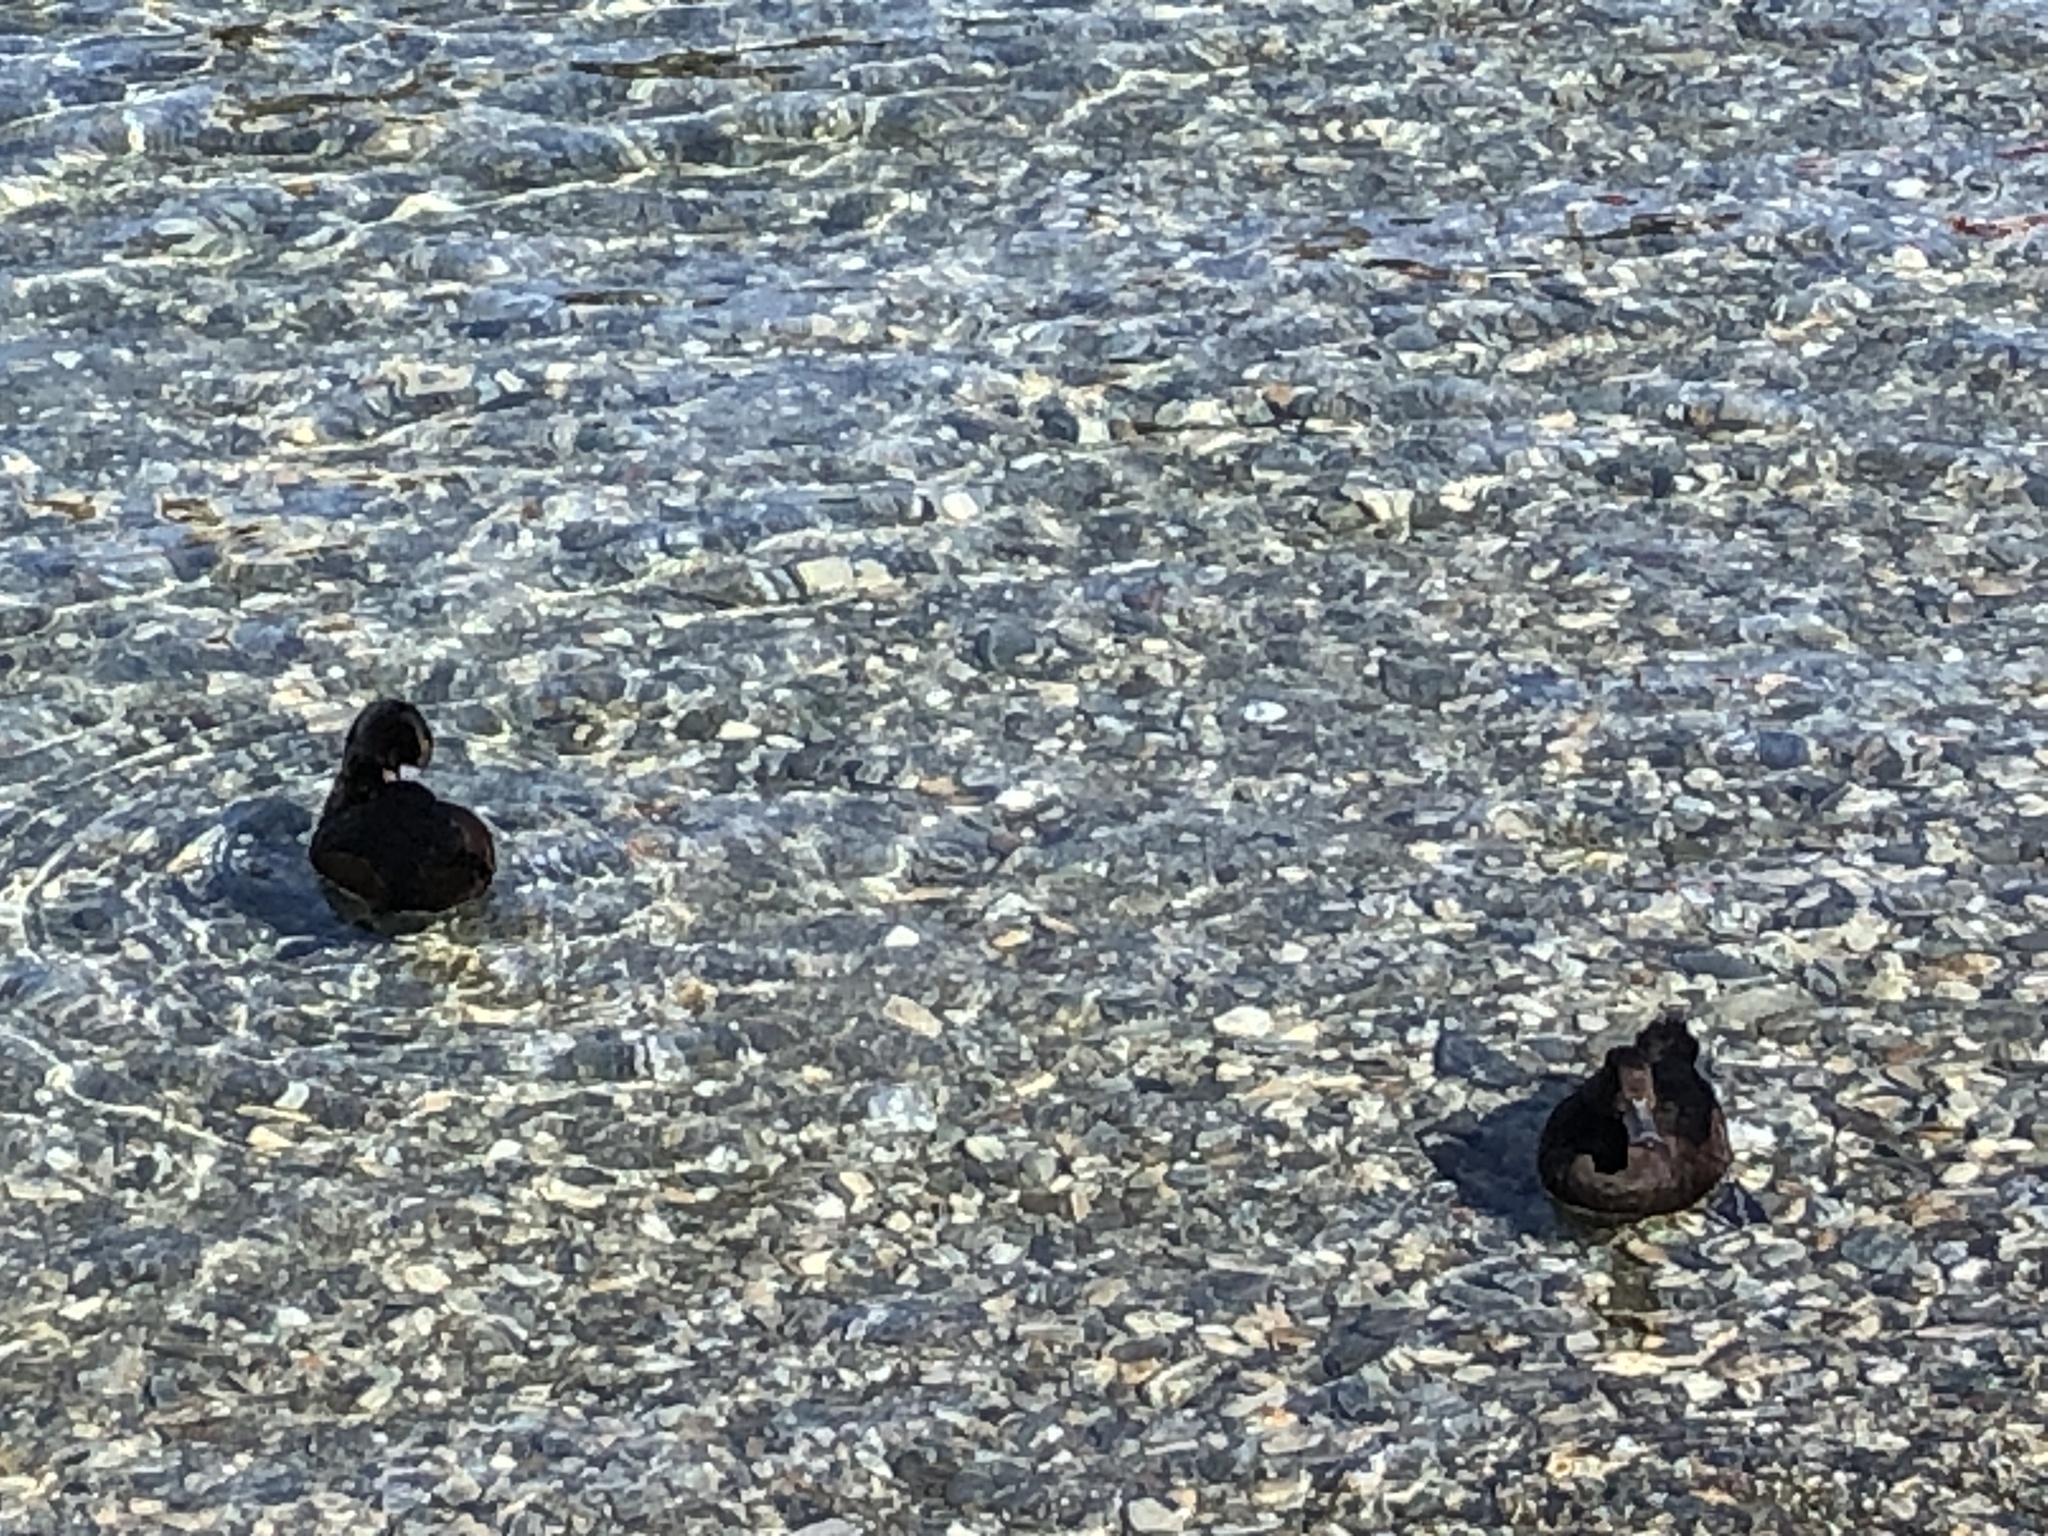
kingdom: Animalia
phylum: Chordata
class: Aves
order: Anseriformes
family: Anatidae
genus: Aythya
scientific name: Aythya novaeseelandiae
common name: New zealand scaup
